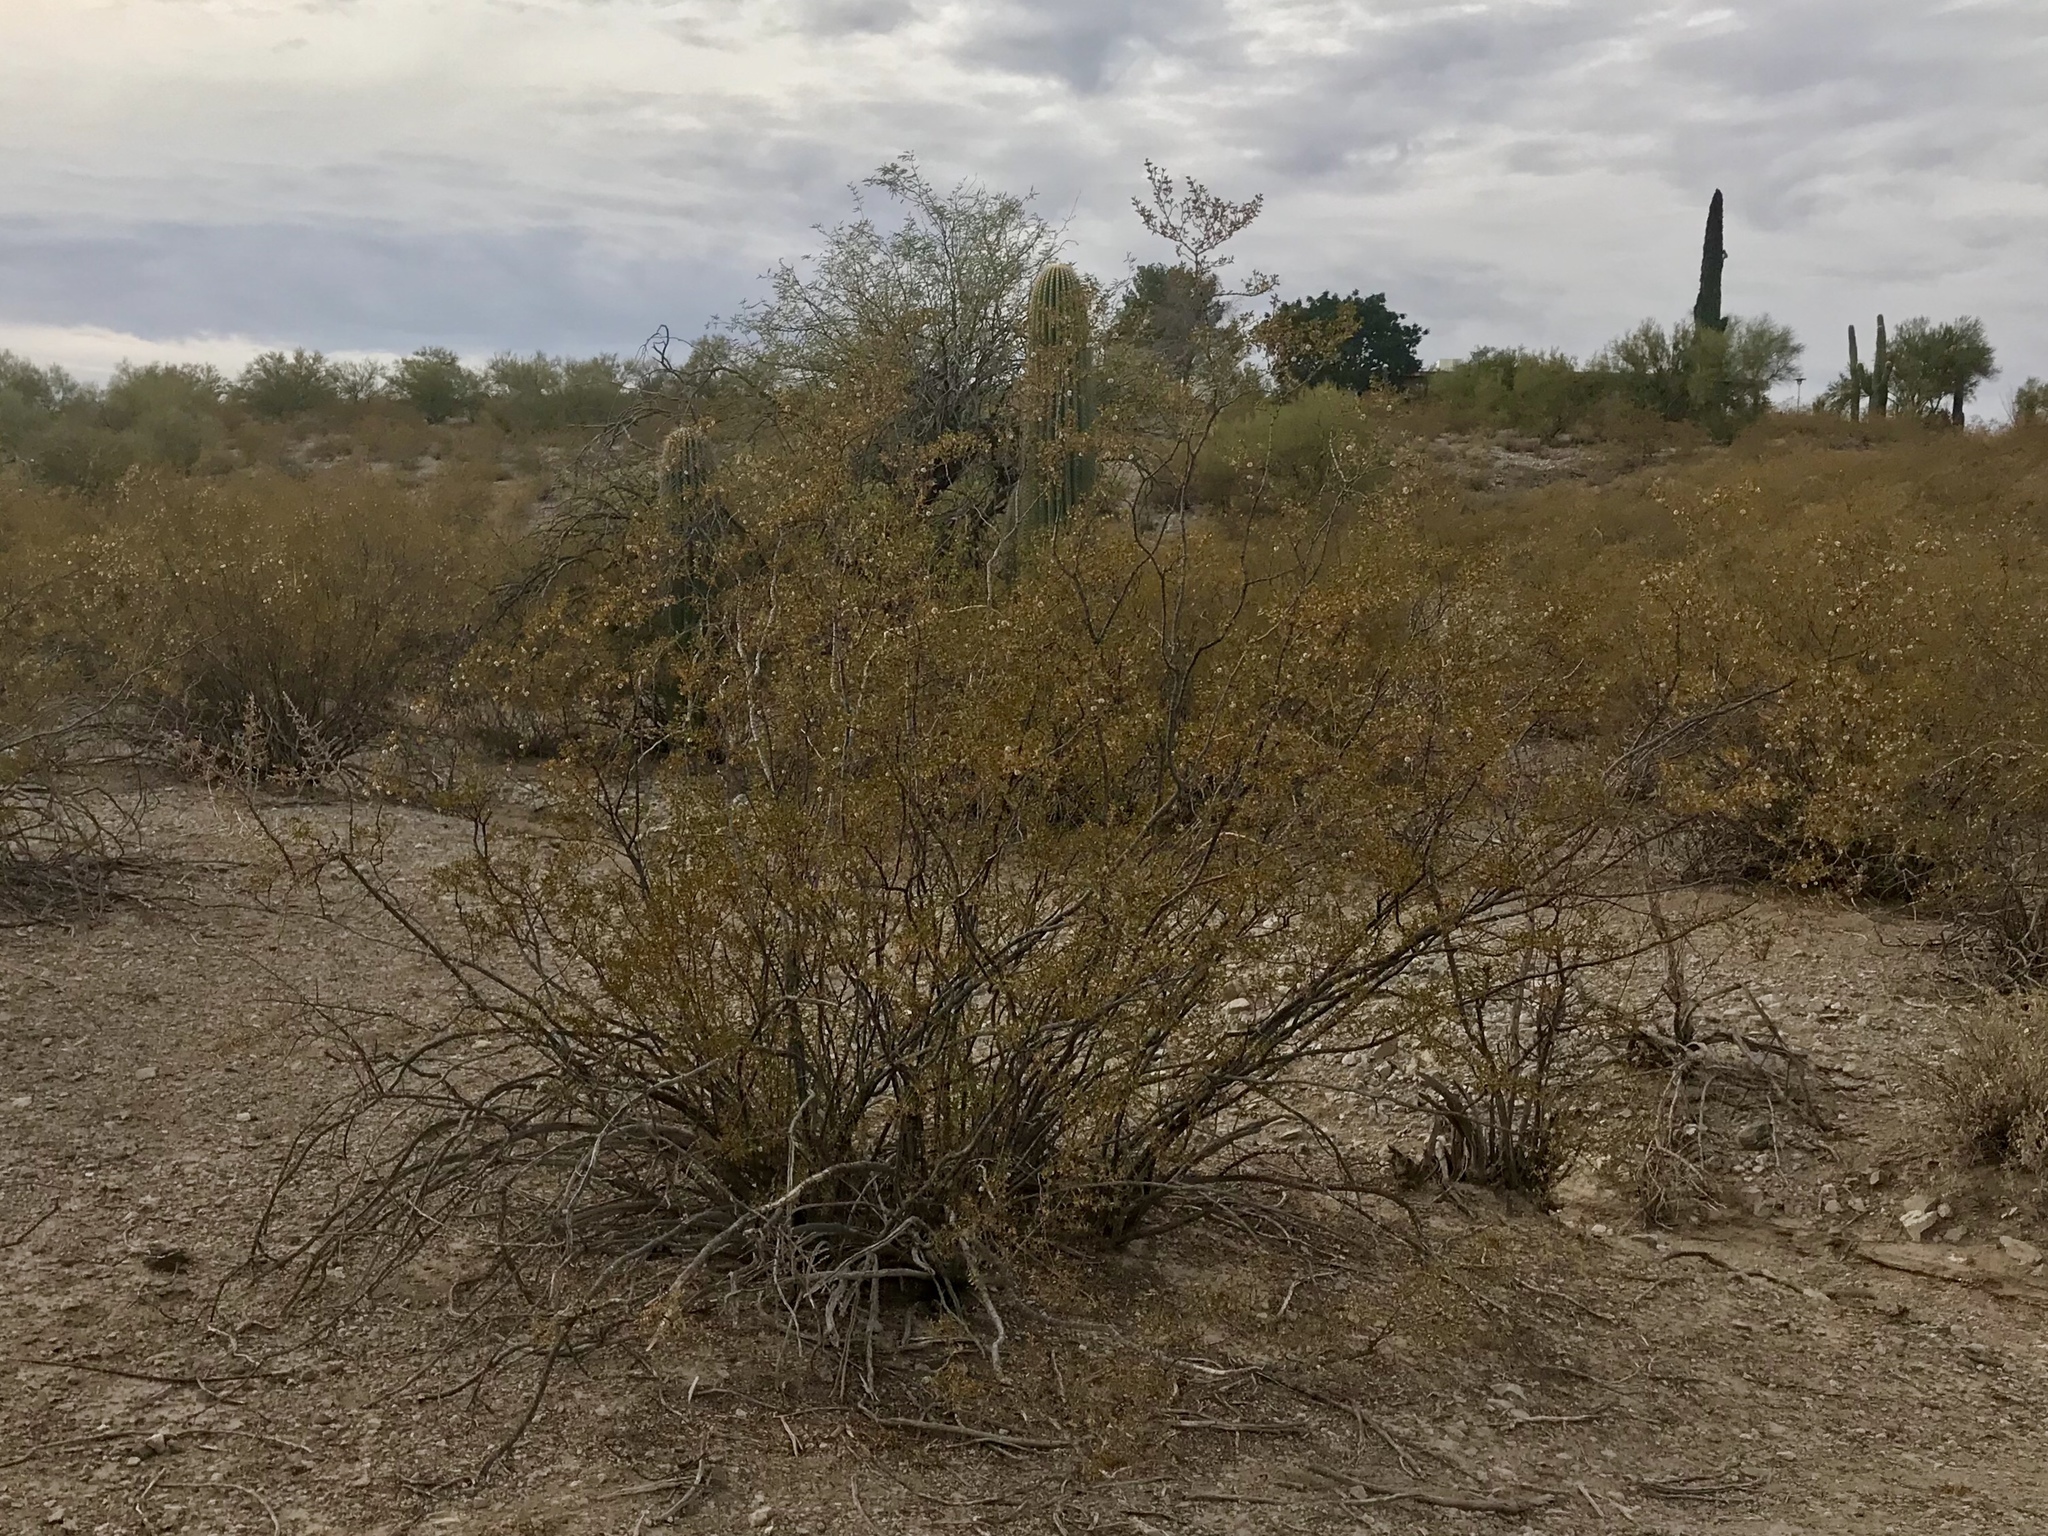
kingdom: Plantae
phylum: Tracheophyta
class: Magnoliopsida
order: Zygophyllales
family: Zygophyllaceae
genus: Larrea
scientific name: Larrea tridentata
